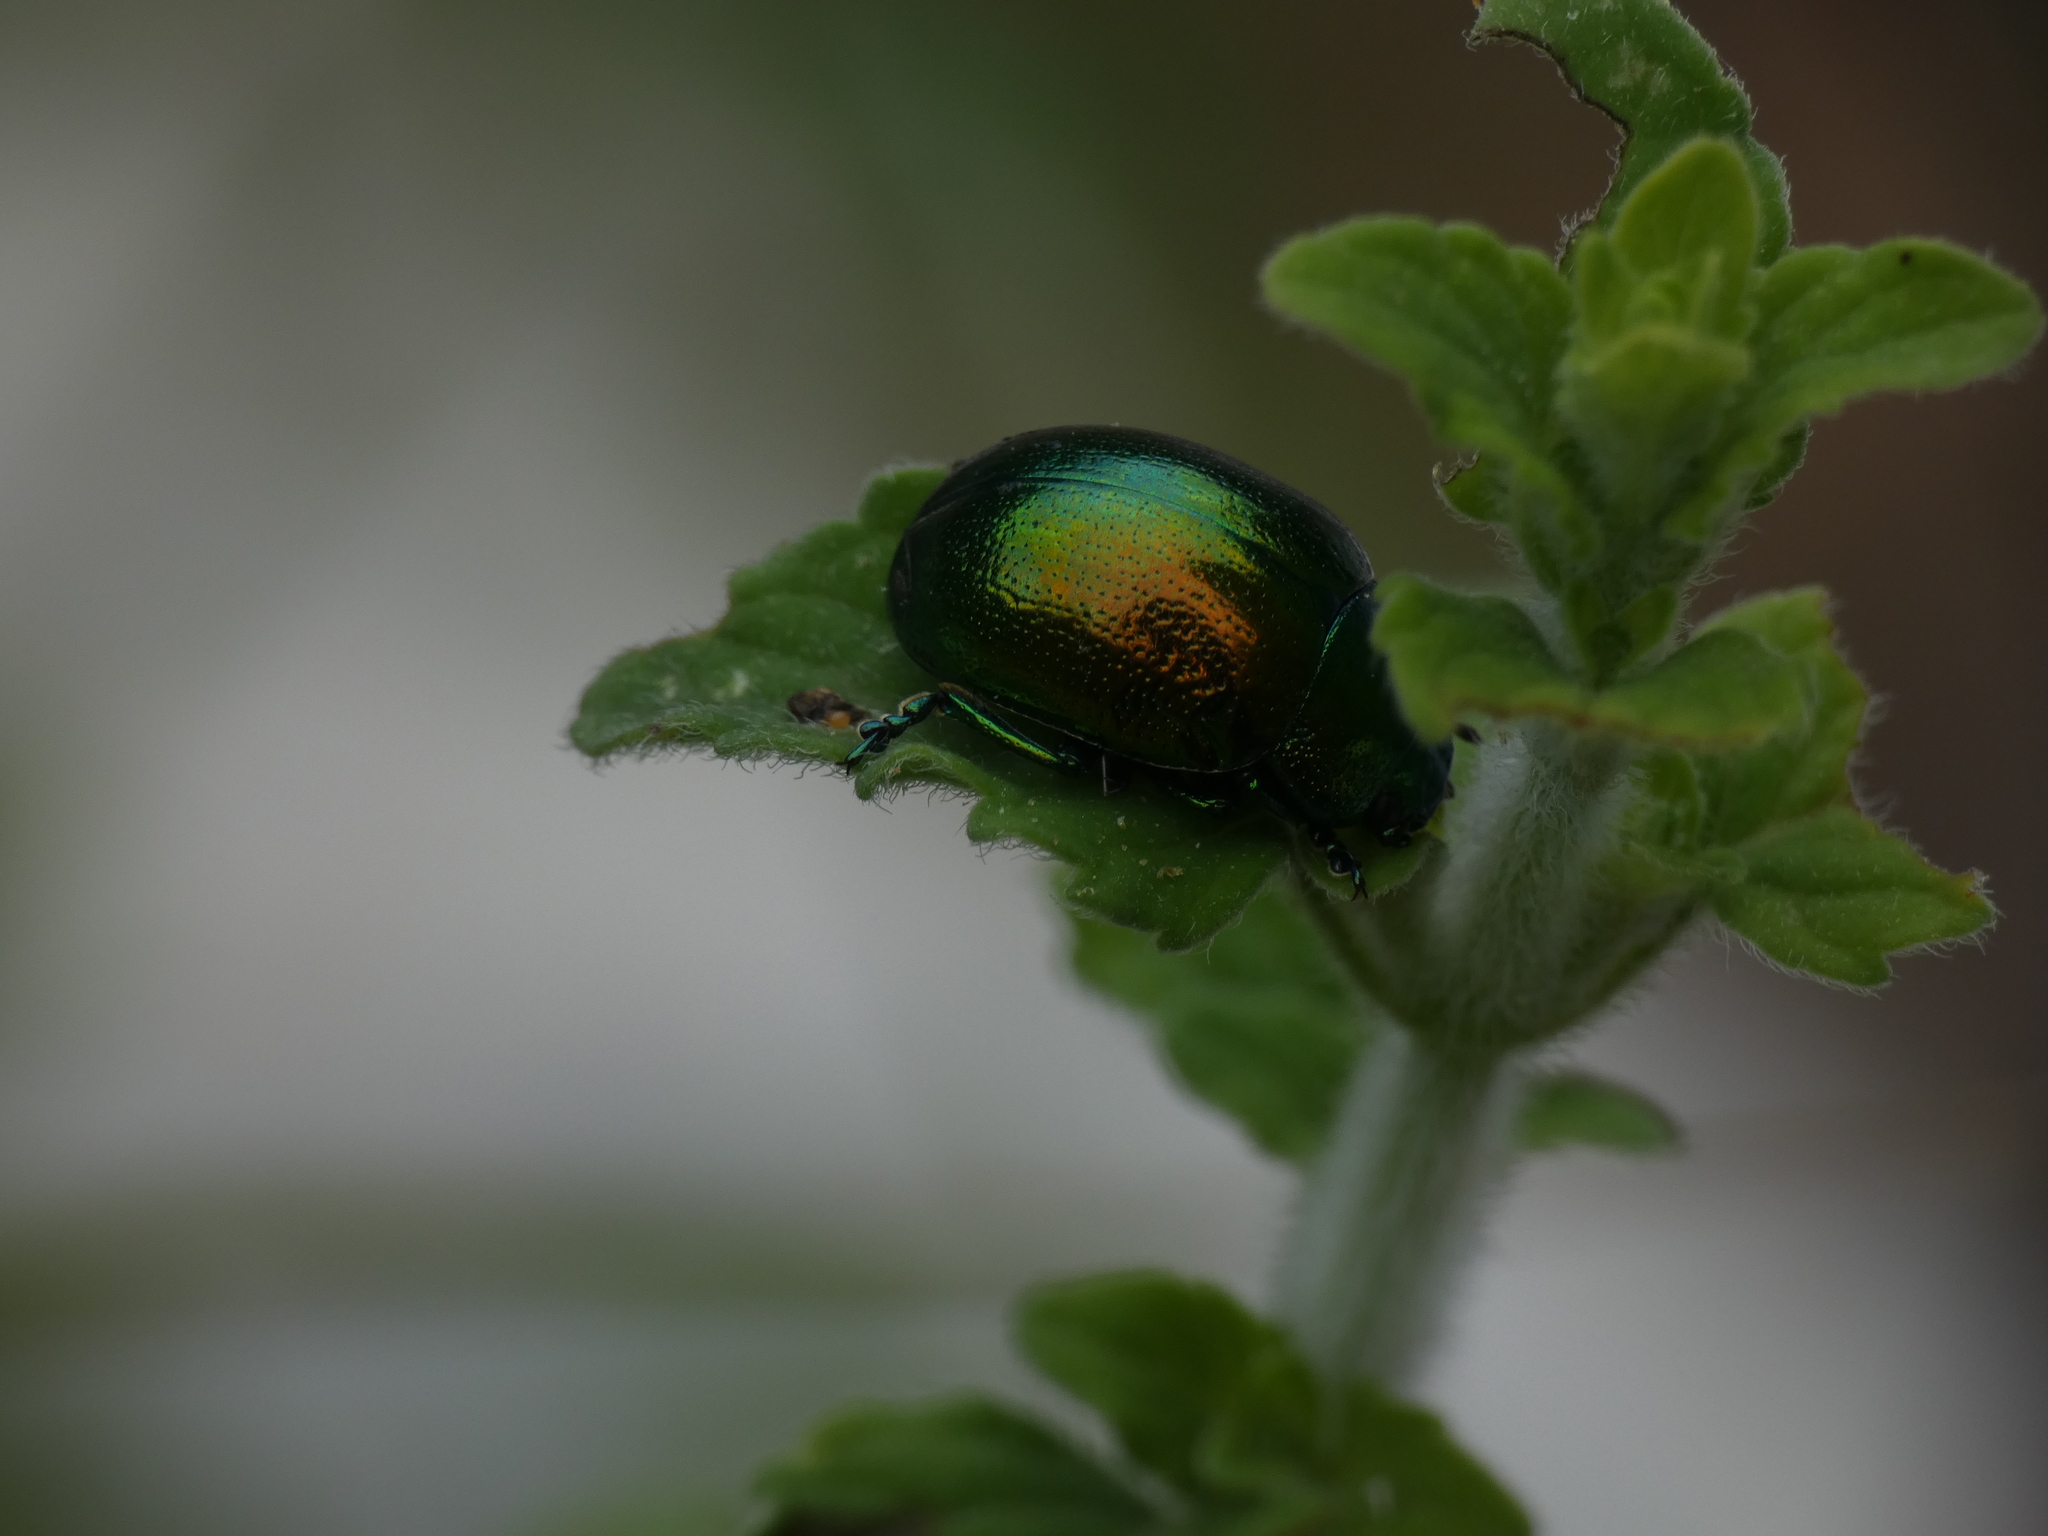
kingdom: Animalia
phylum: Arthropoda
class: Insecta
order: Coleoptera
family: Chrysomelidae
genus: Chrysolina
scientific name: Chrysolina herbacea
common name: Mint leaf beatle
